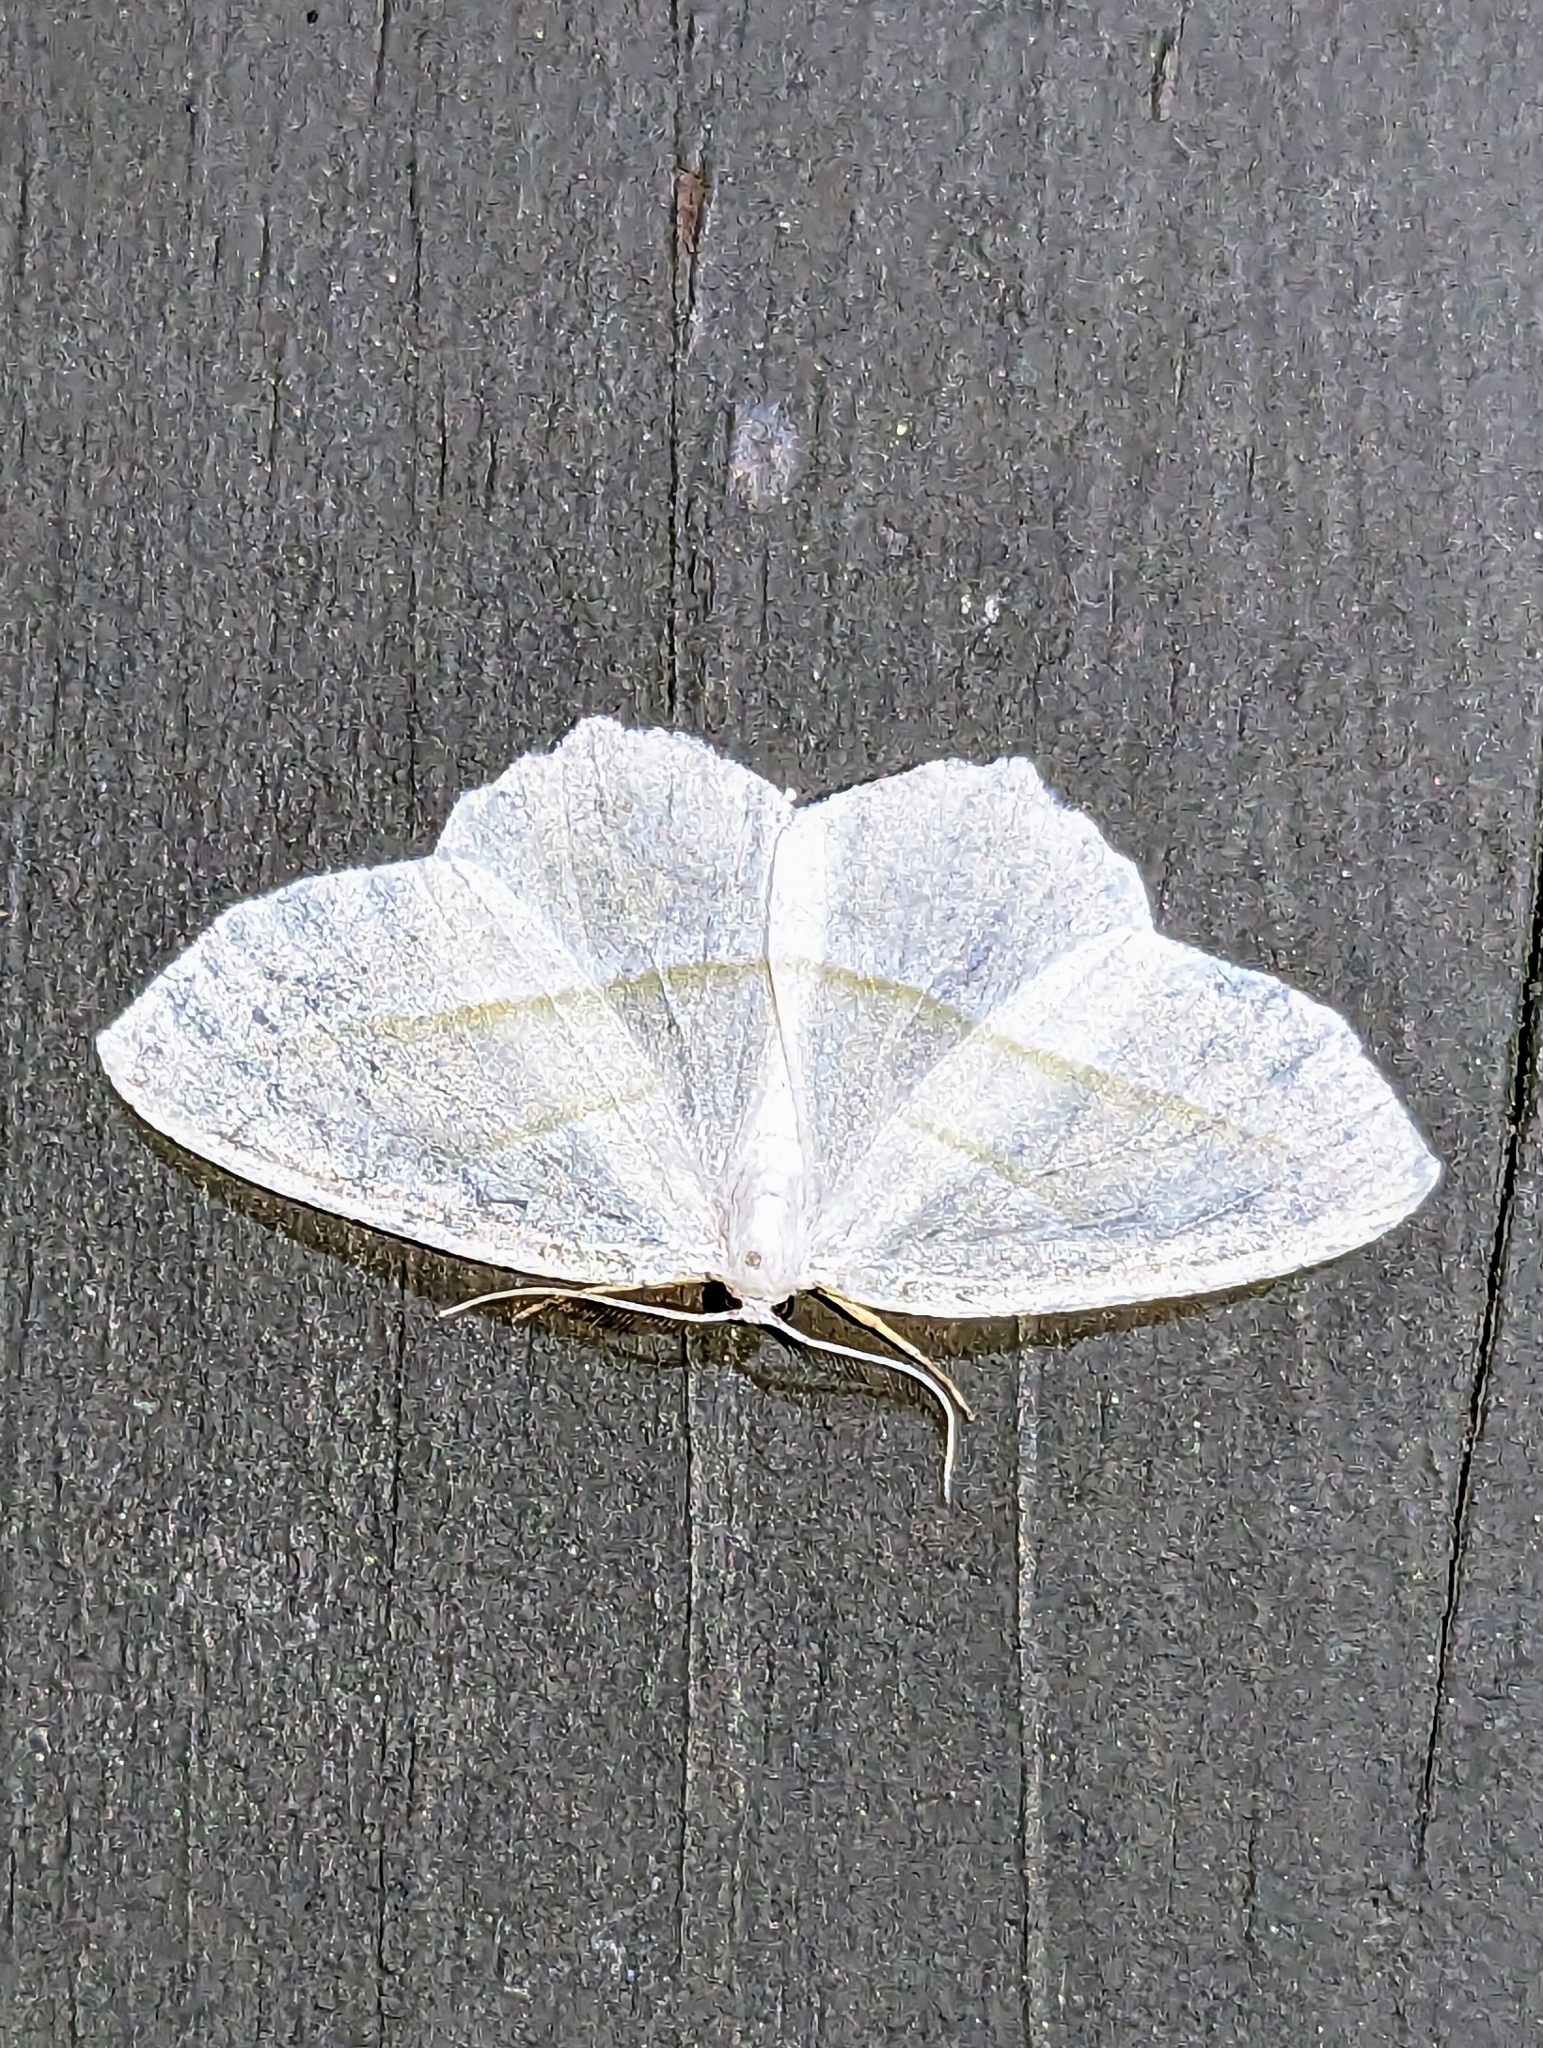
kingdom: Animalia
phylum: Arthropoda
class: Insecta
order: Lepidoptera
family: Geometridae
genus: Campaea
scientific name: Campaea perlata
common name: Fringed looper
